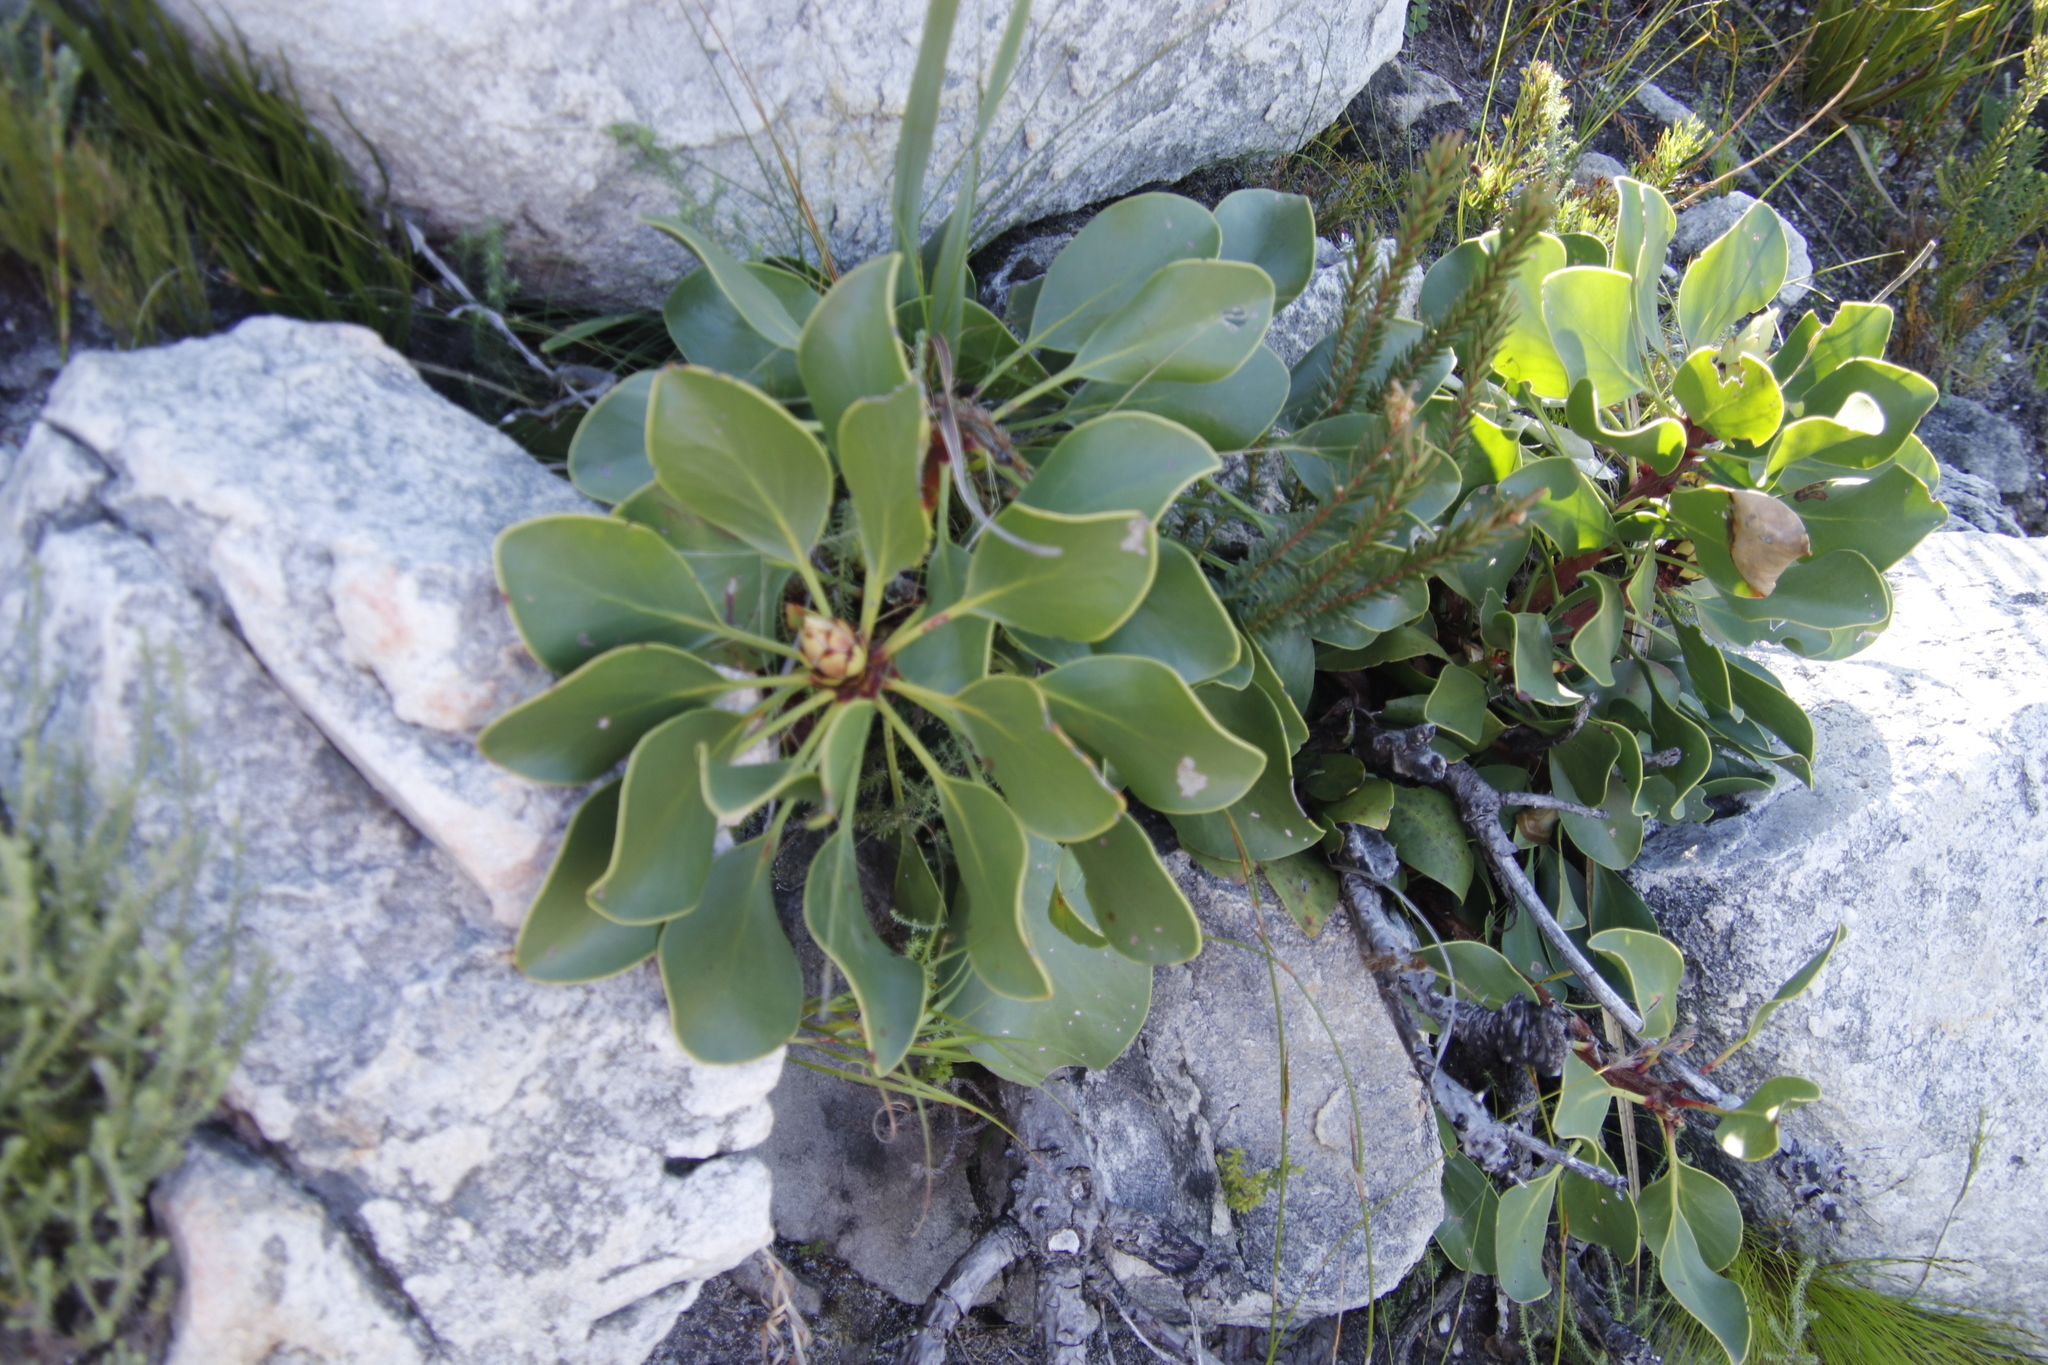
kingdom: Plantae
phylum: Tracheophyta
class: Magnoliopsida
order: Proteales
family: Proteaceae
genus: Protea
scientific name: Protea cynaroides
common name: King protea
